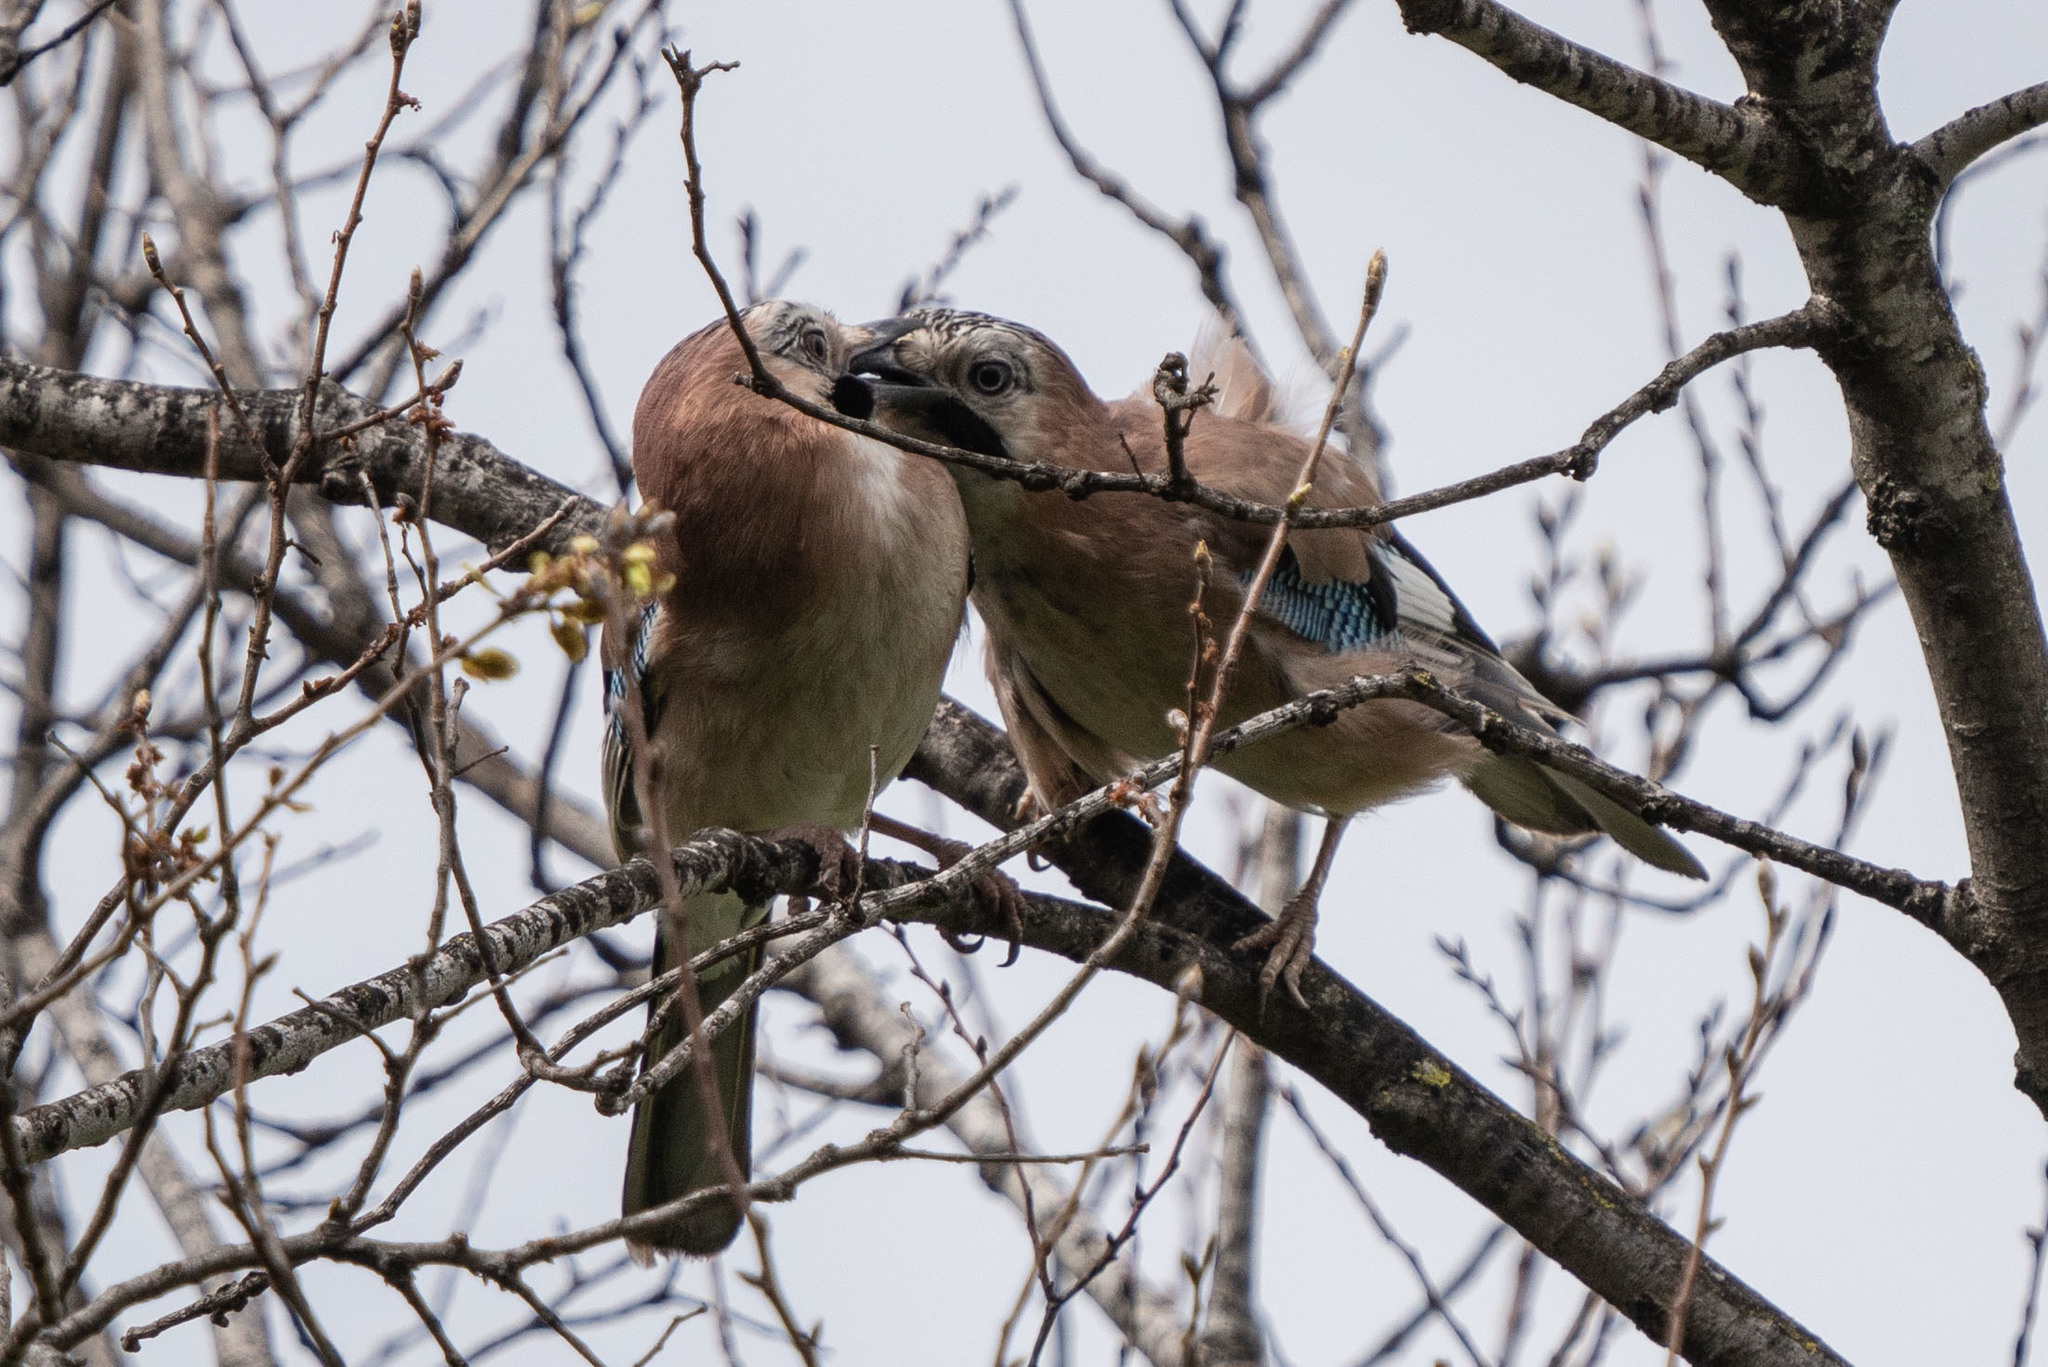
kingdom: Animalia
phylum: Chordata
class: Aves
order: Passeriformes
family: Corvidae
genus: Garrulus
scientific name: Garrulus glandarius
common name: Eurasian jay
